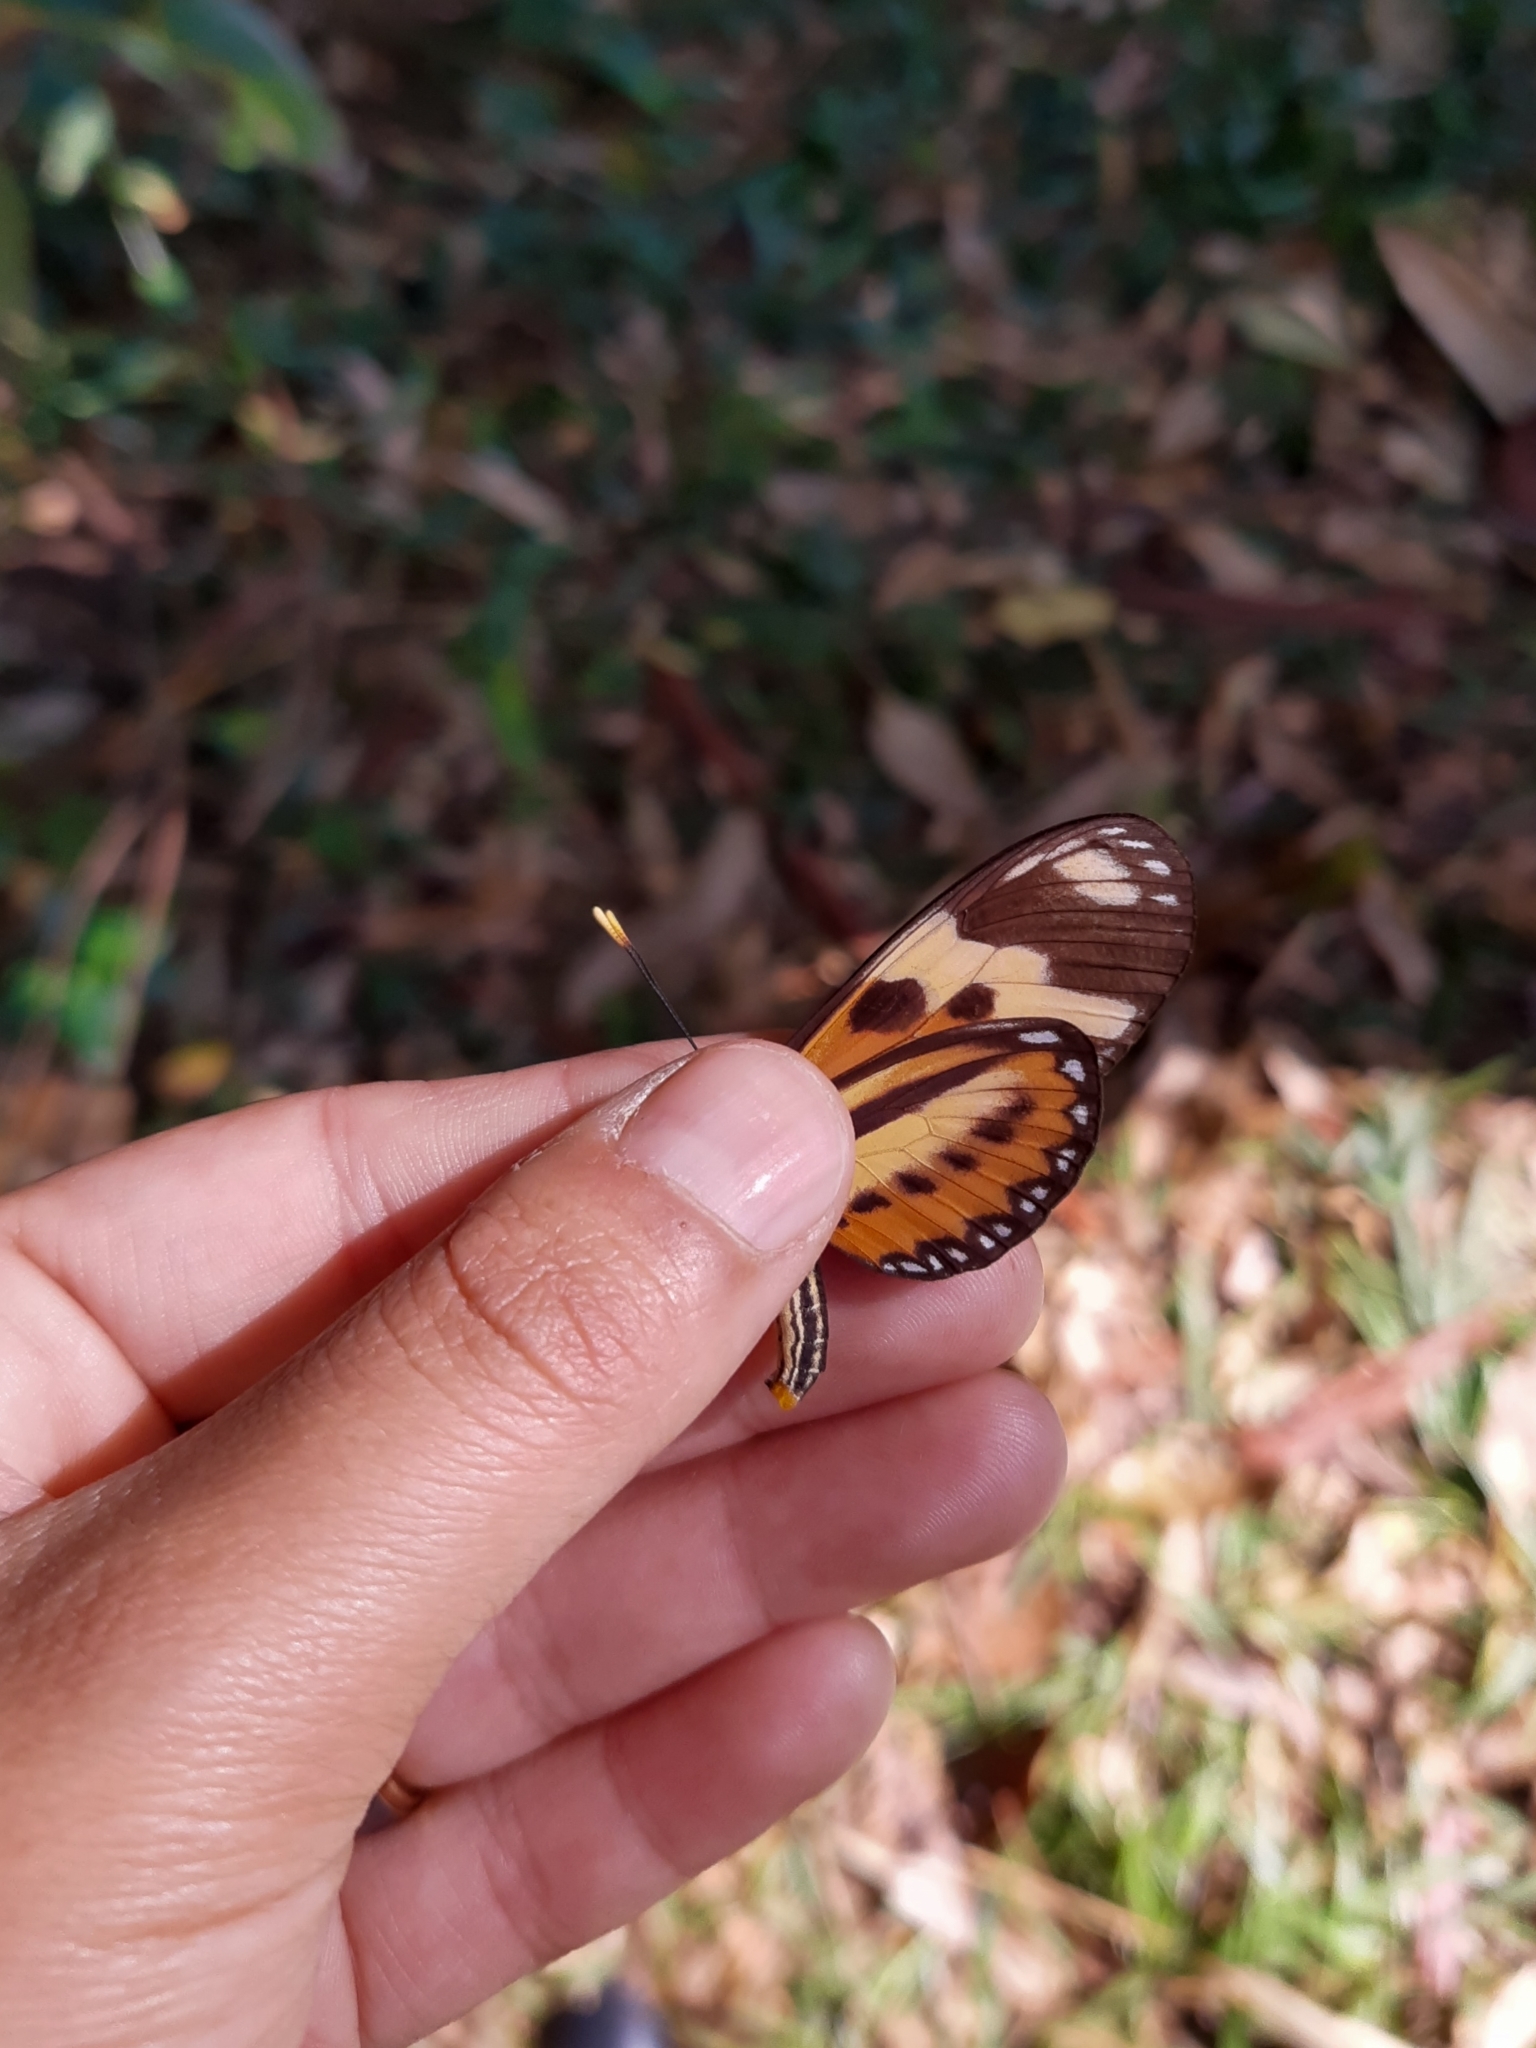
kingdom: Animalia
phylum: Arthropoda
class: Insecta
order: Lepidoptera
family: Nymphalidae
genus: Eueides
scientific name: Eueides isabella
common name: Isabella's longwing
